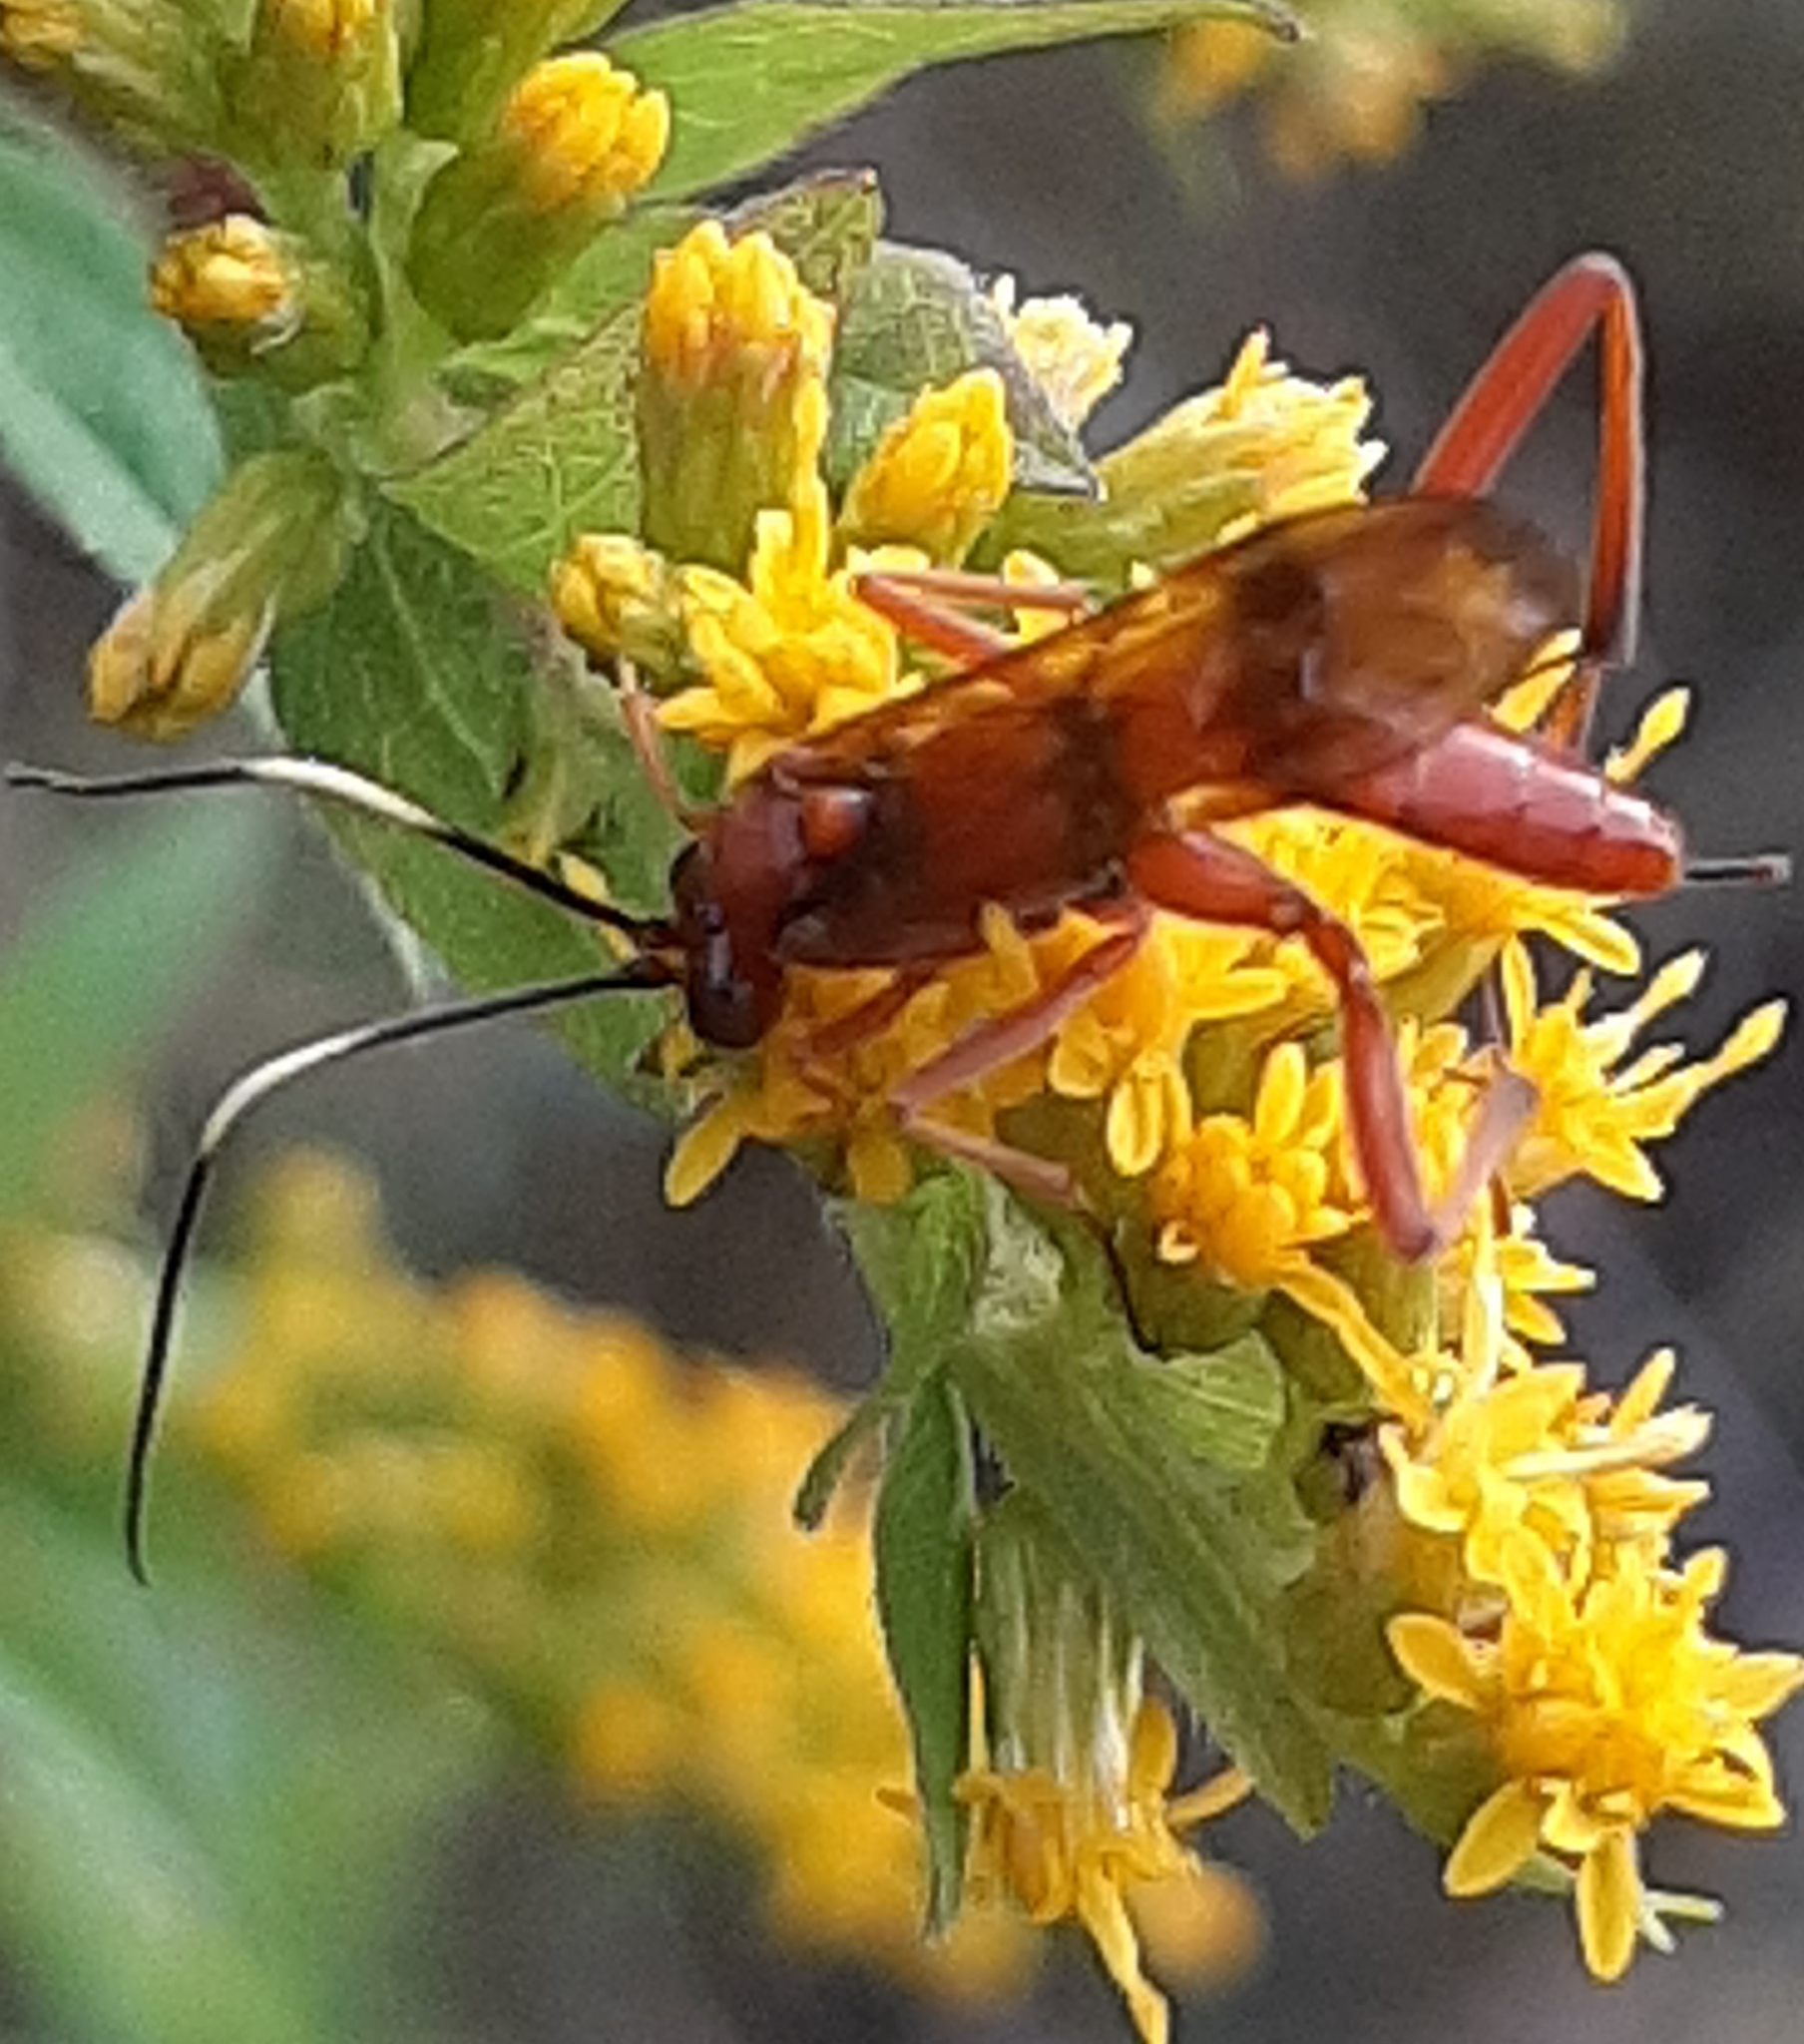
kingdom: Animalia
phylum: Arthropoda
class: Insecta
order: Hymenoptera
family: Ichneumonidae
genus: Exetastes
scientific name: Exetastes angustoralis
